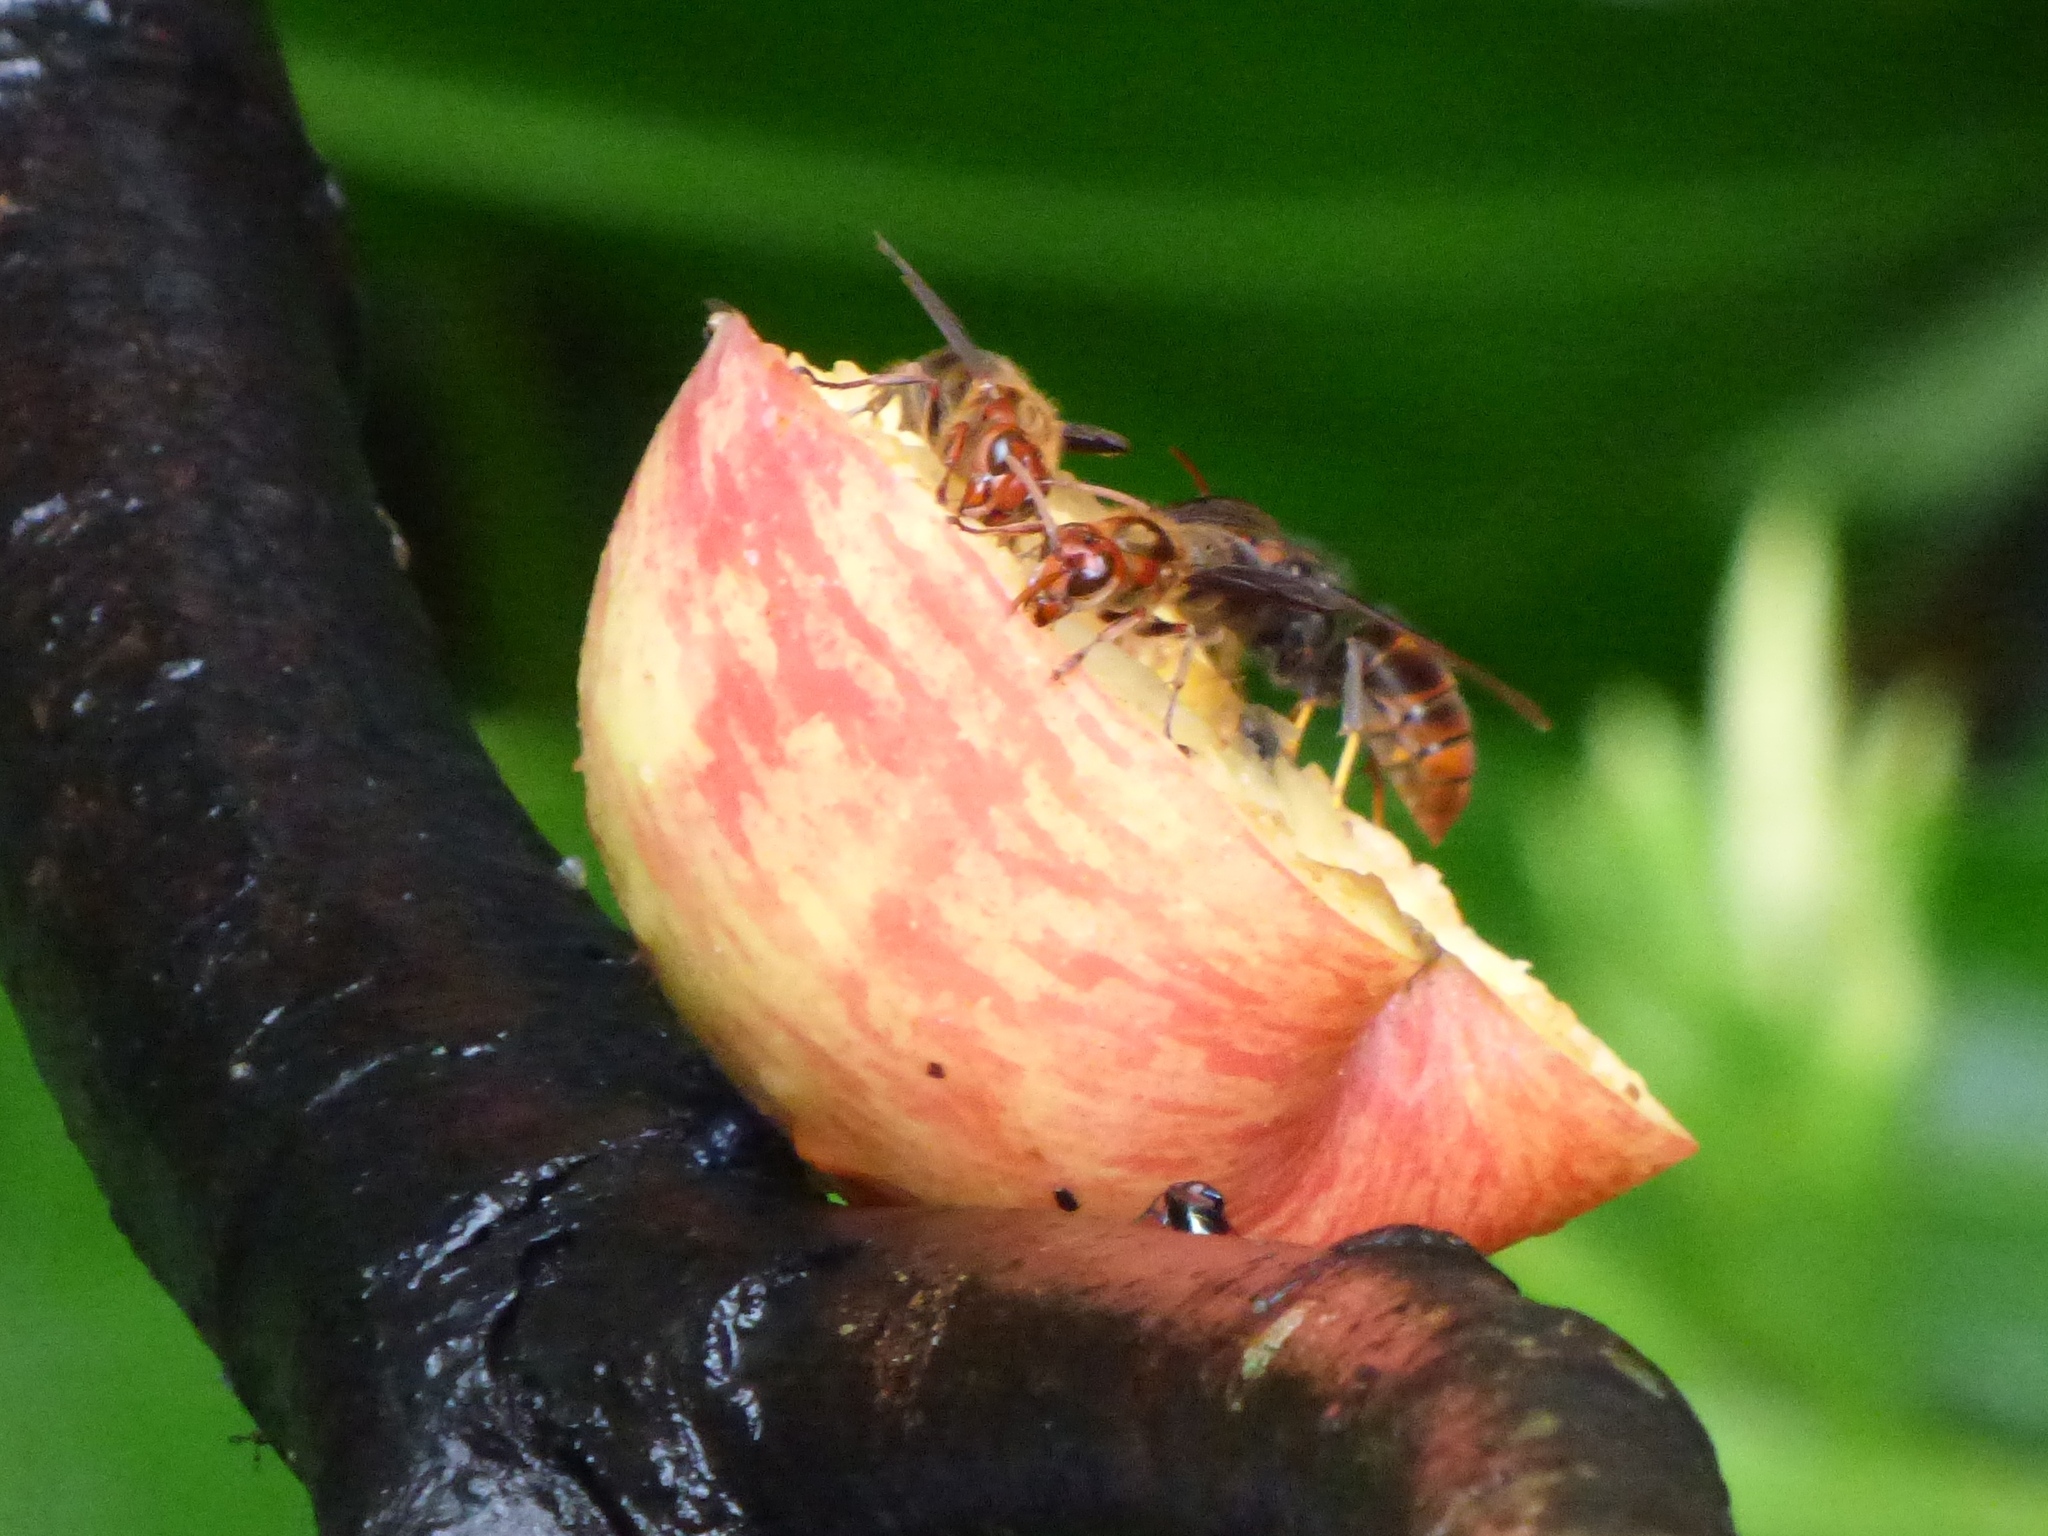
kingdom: Animalia
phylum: Arthropoda
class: Insecta
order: Hymenoptera
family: Vespidae
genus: Vespa
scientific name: Vespa velutina
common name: Asian hornet
